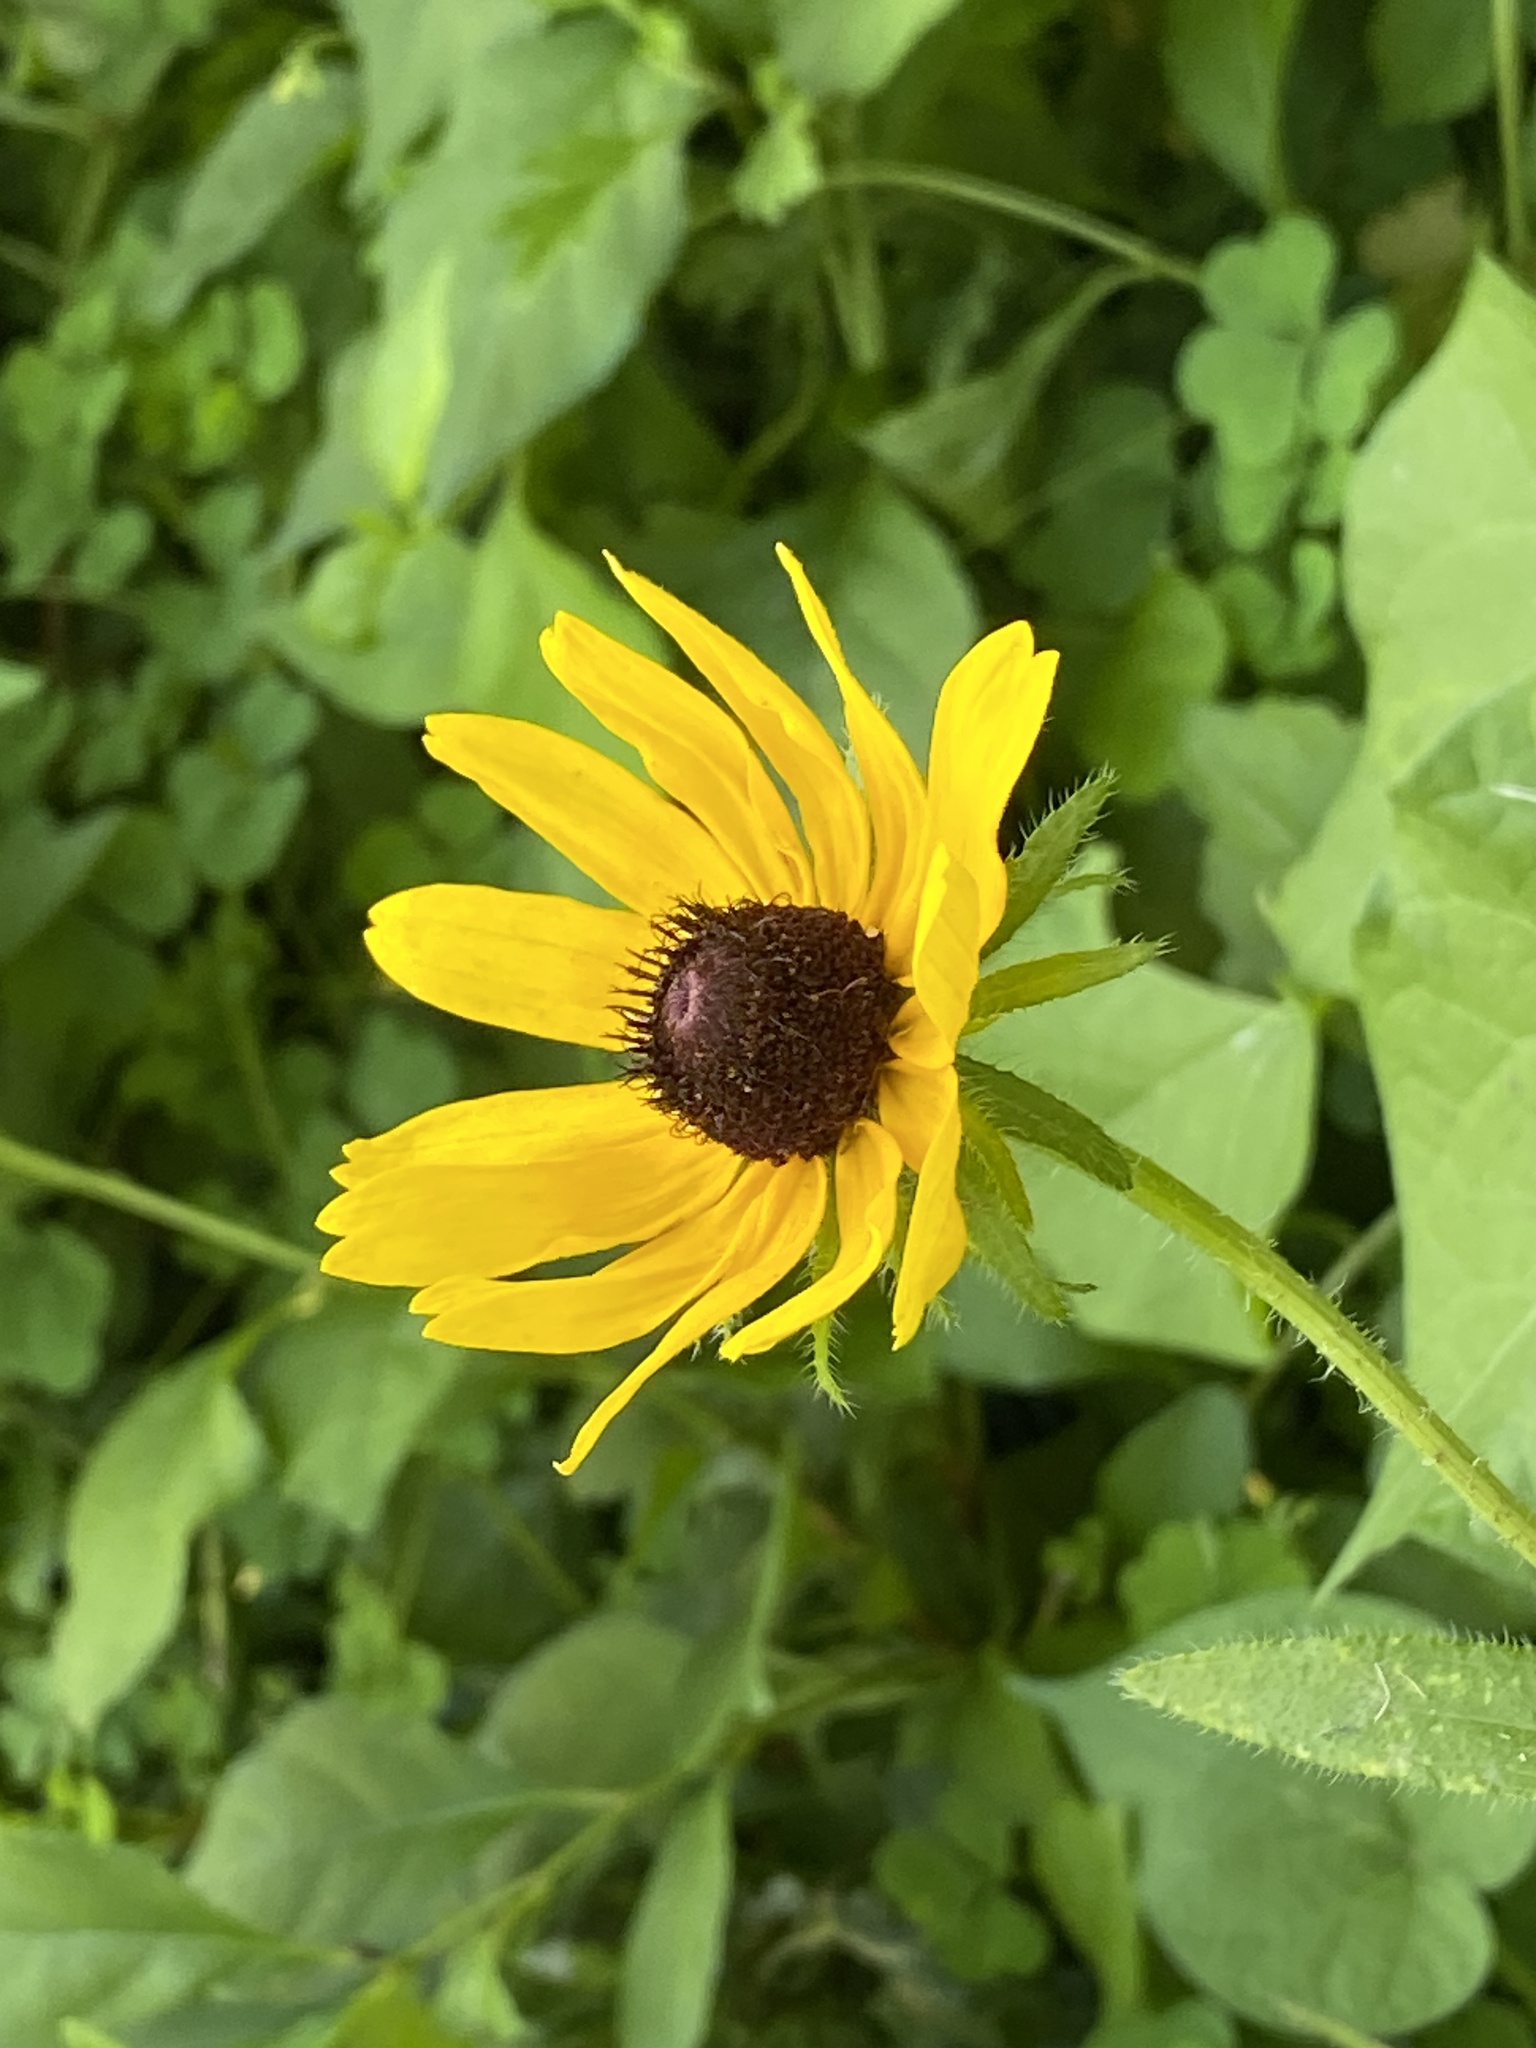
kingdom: Plantae
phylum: Tracheophyta
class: Magnoliopsida
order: Asterales
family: Asteraceae
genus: Rudbeckia
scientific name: Rudbeckia hirta
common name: Black-eyed-susan
